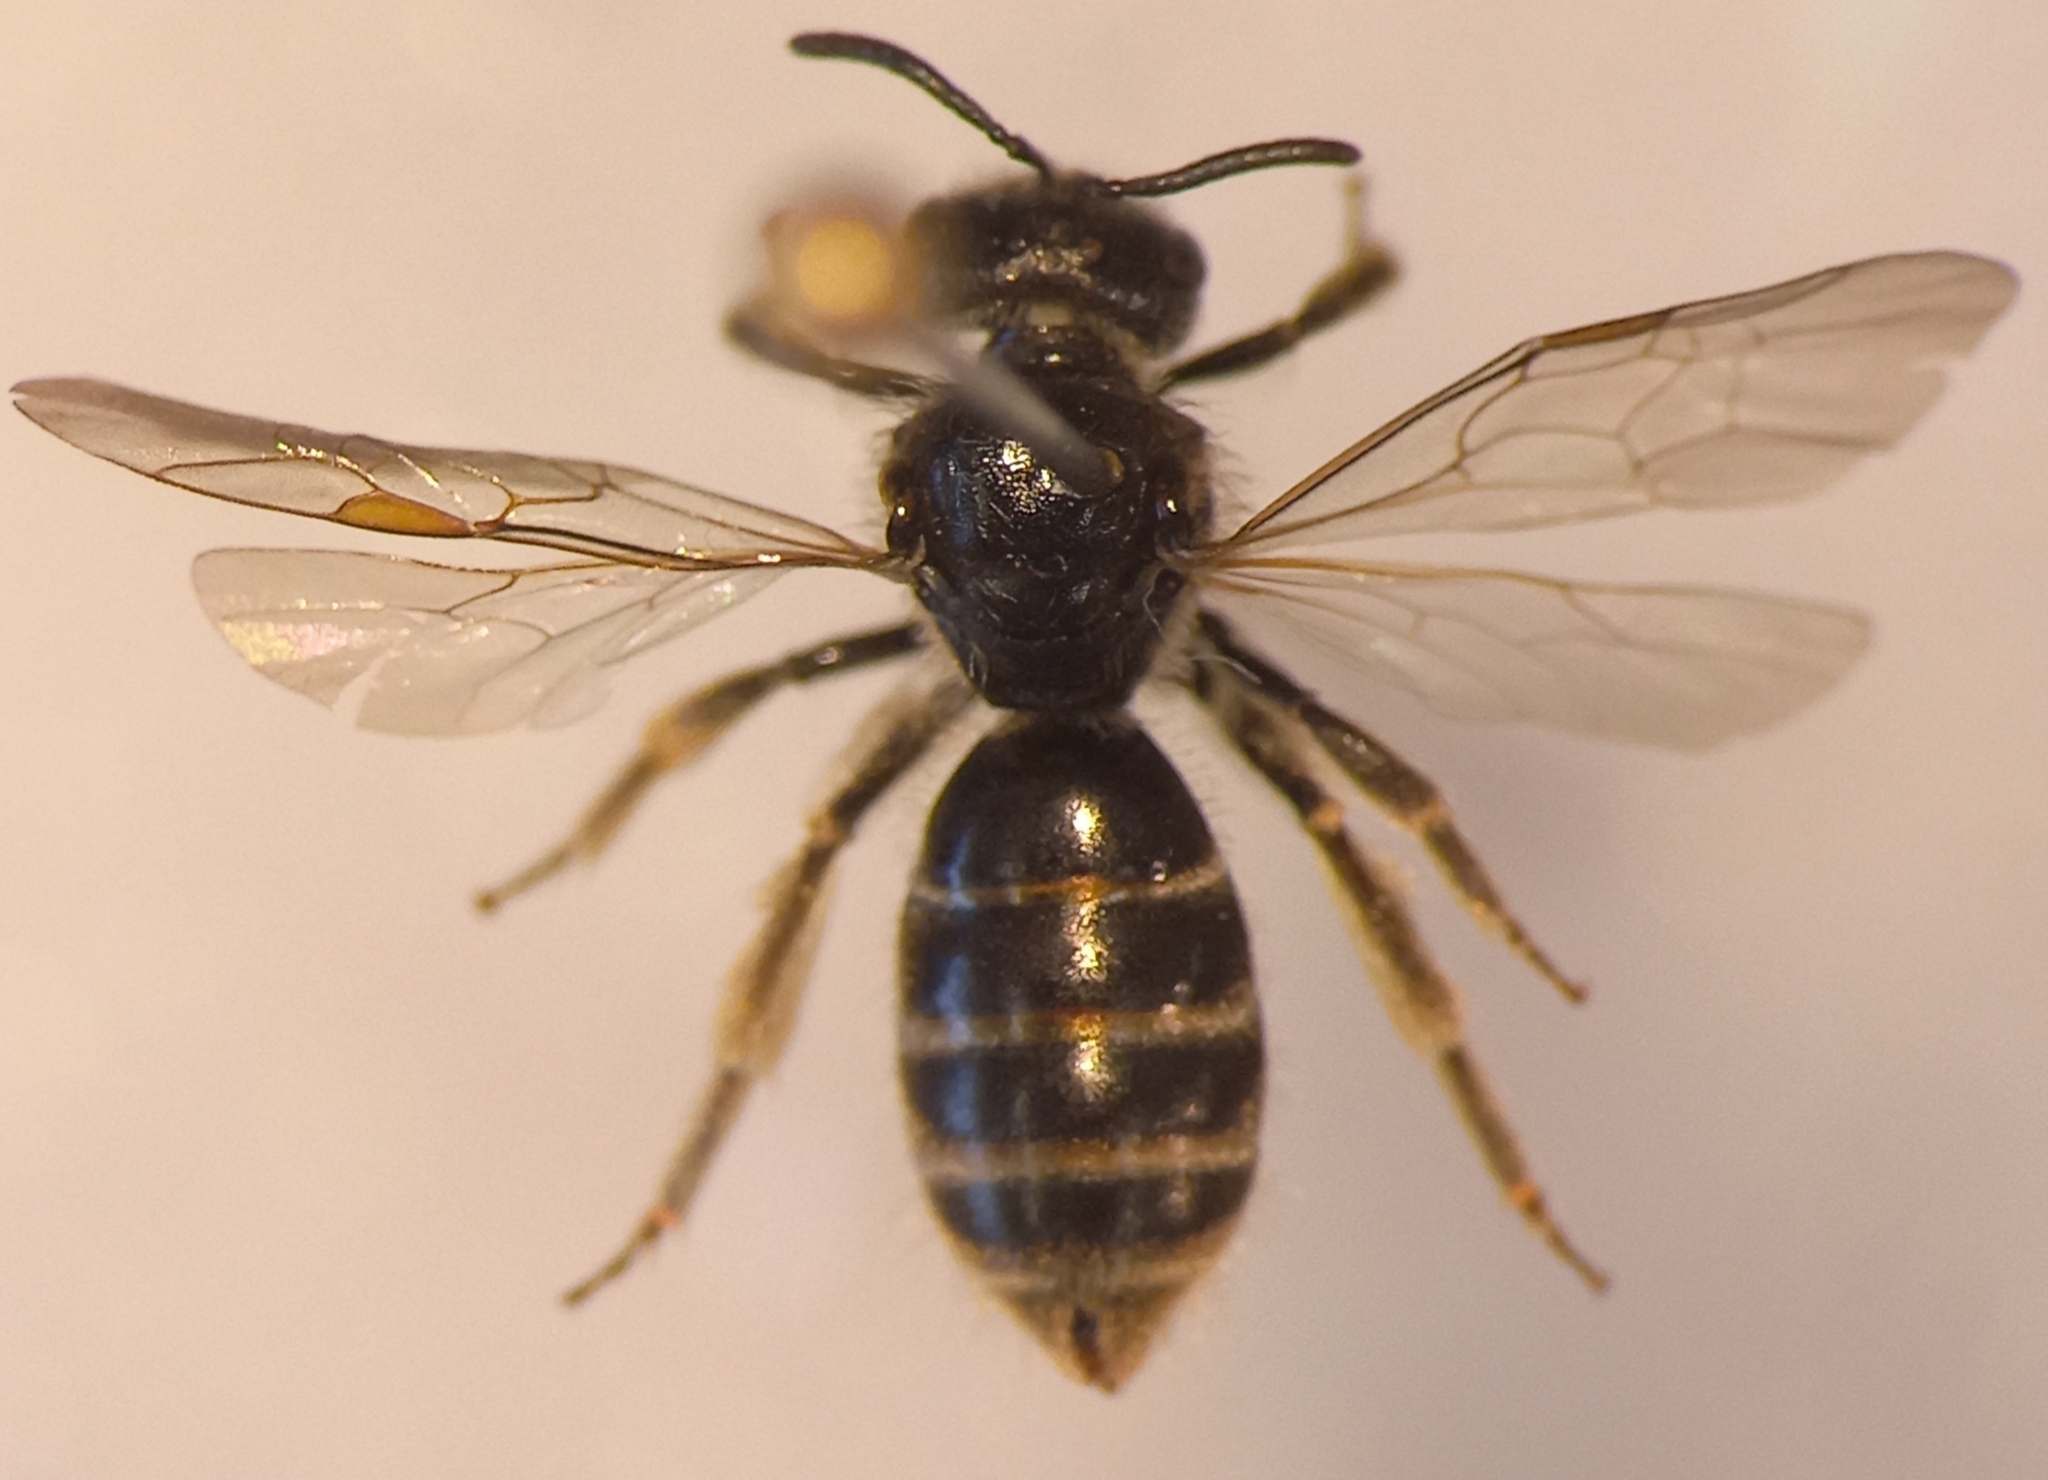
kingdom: Animalia
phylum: Arthropoda
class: Insecta
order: Hymenoptera
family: Halictidae
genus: Lasioglossum
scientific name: Lasioglossum marginatum
